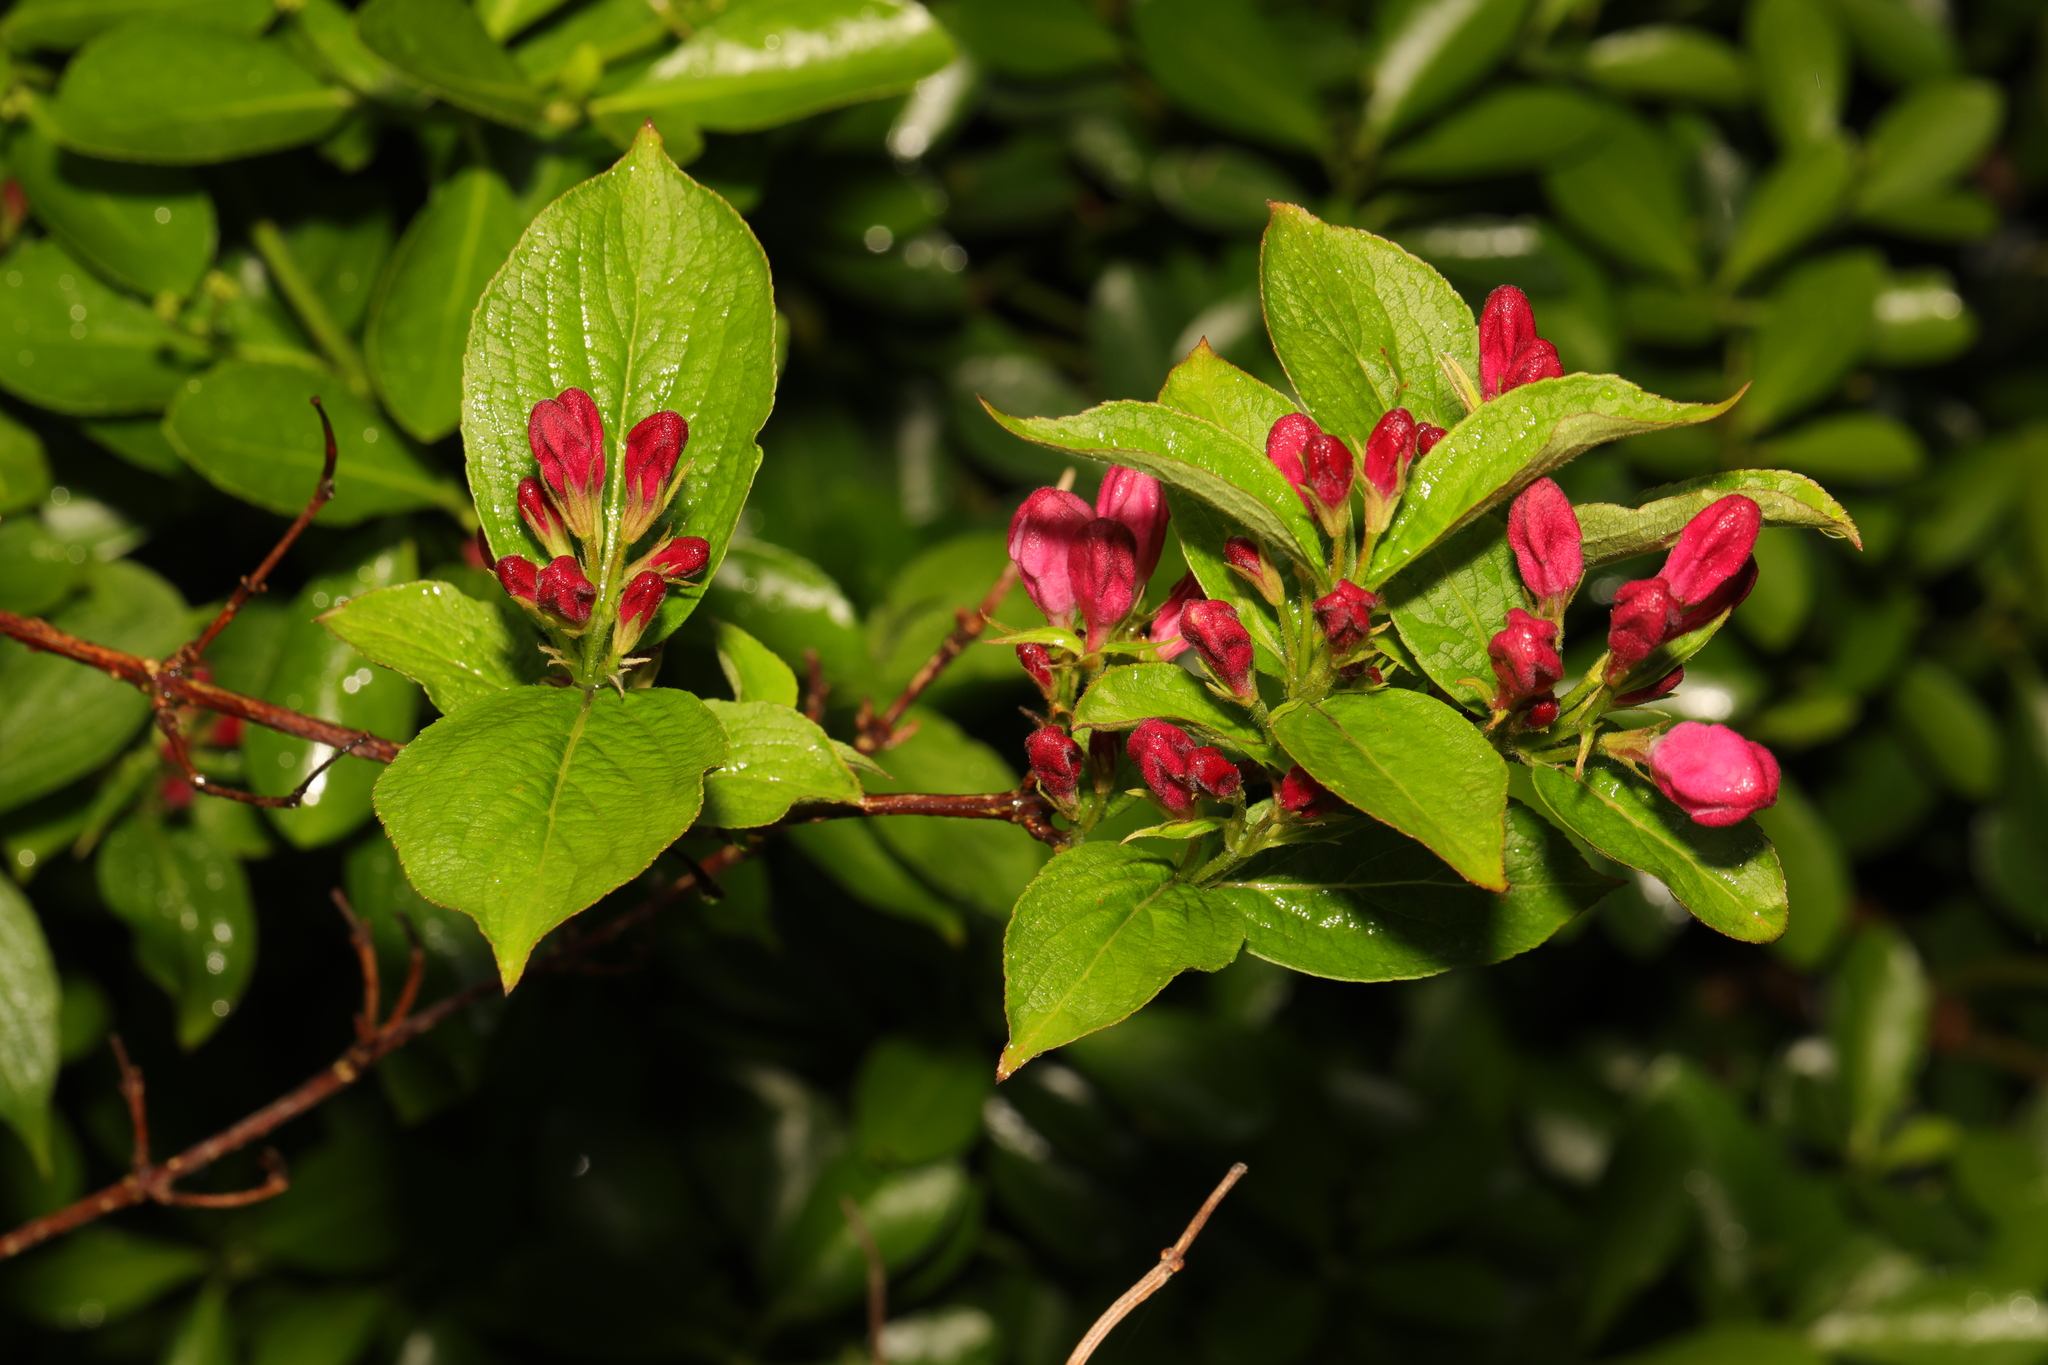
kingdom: Plantae
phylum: Tracheophyta
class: Magnoliopsida
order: Dipsacales
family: Caprifoliaceae
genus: Weigela
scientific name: Weigela florida
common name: Weigelia
